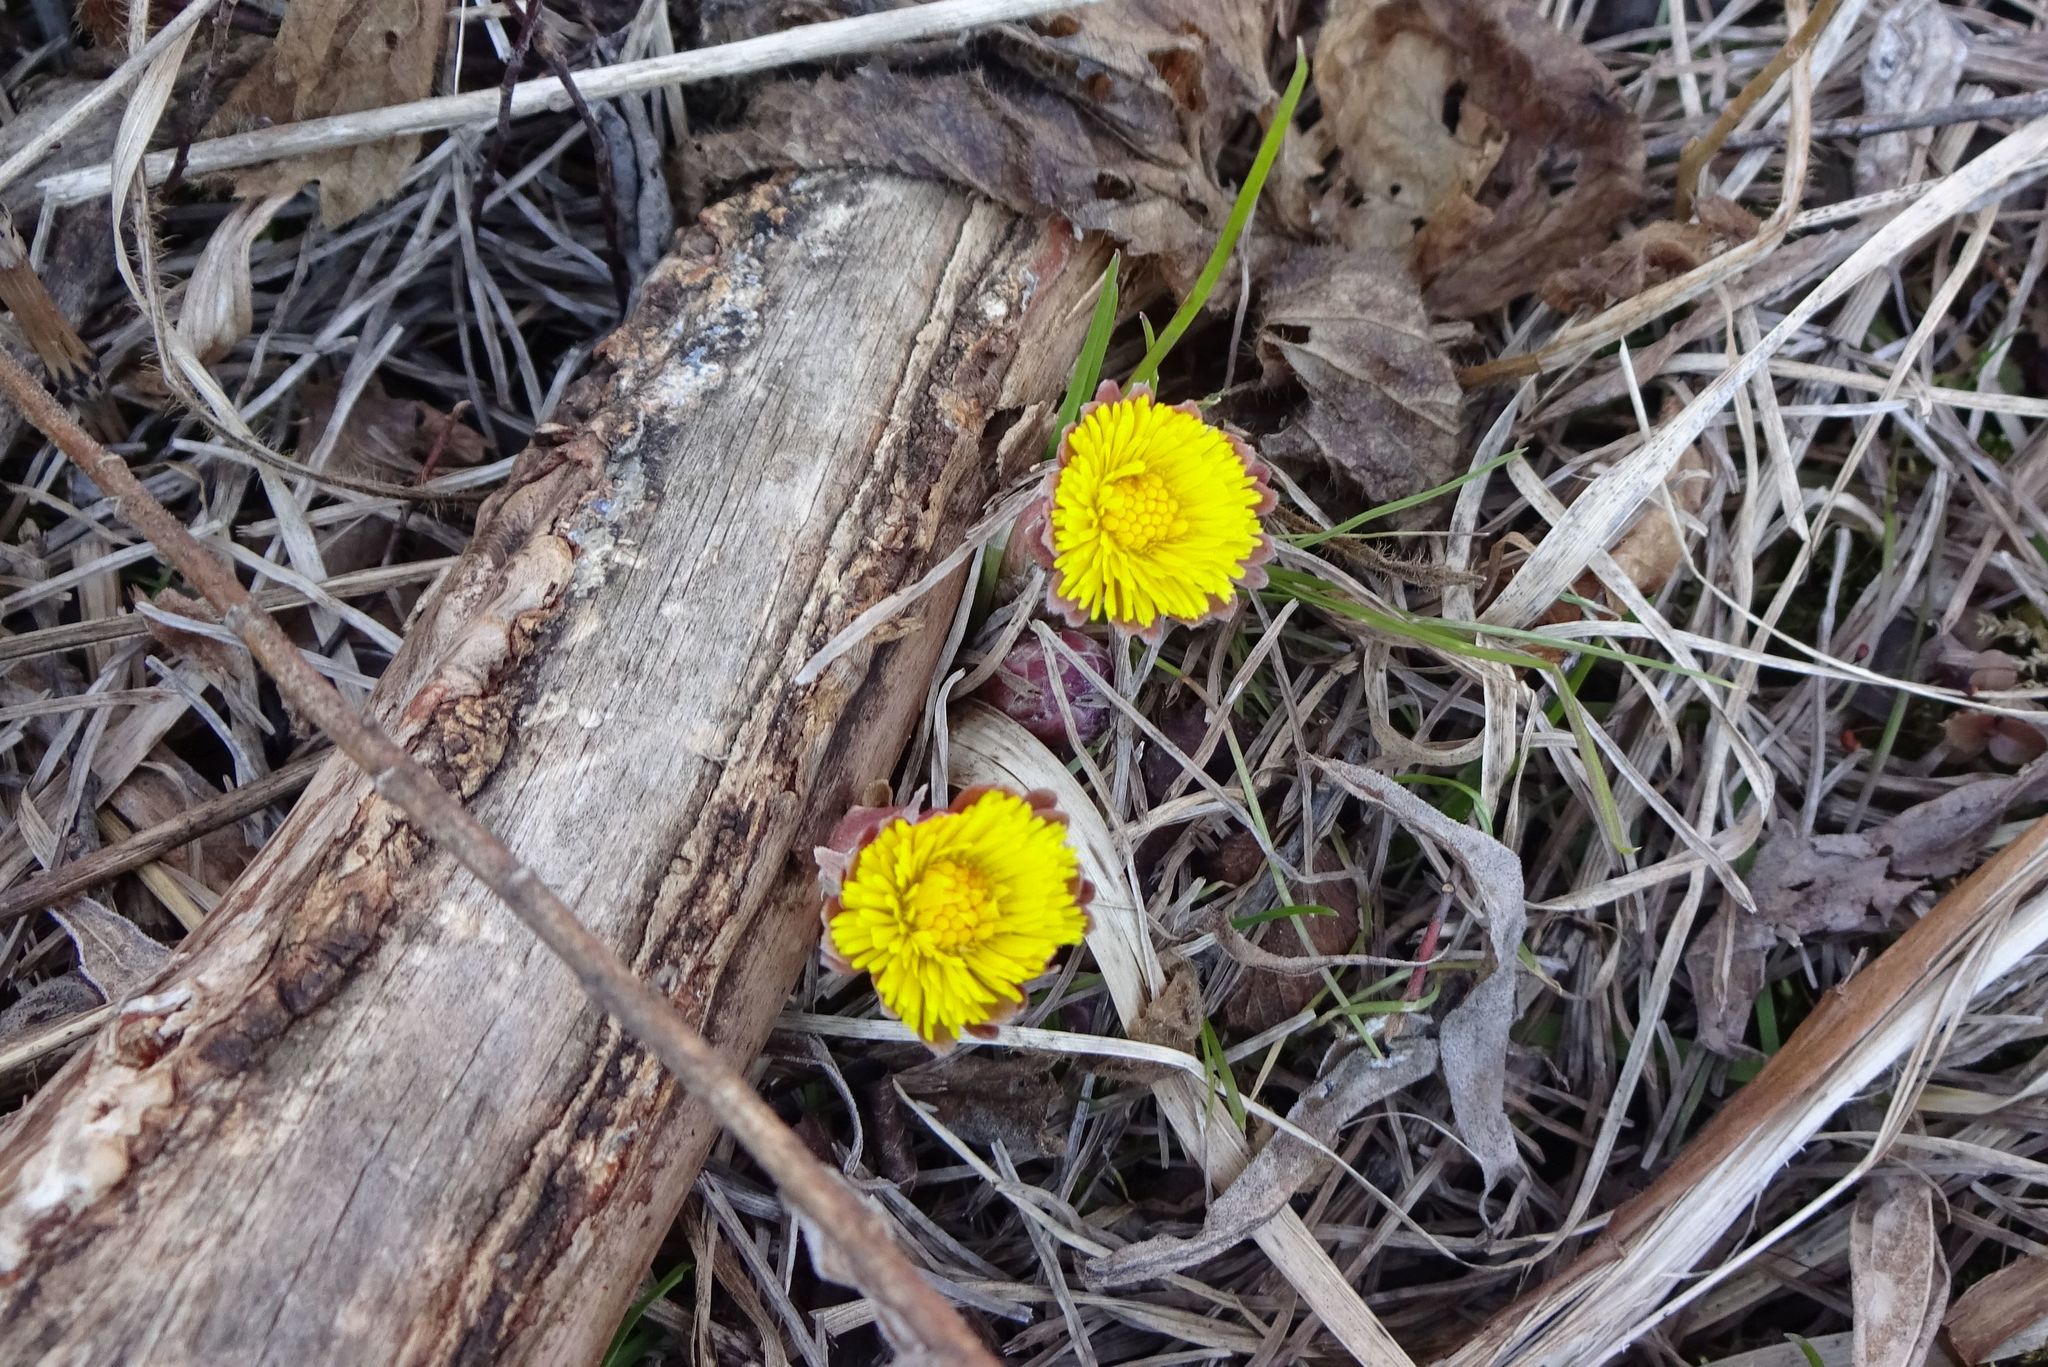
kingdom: Plantae
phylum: Tracheophyta
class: Magnoliopsida
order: Asterales
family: Asteraceae
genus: Tussilago
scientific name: Tussilago farfara
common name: Coltsfoot
